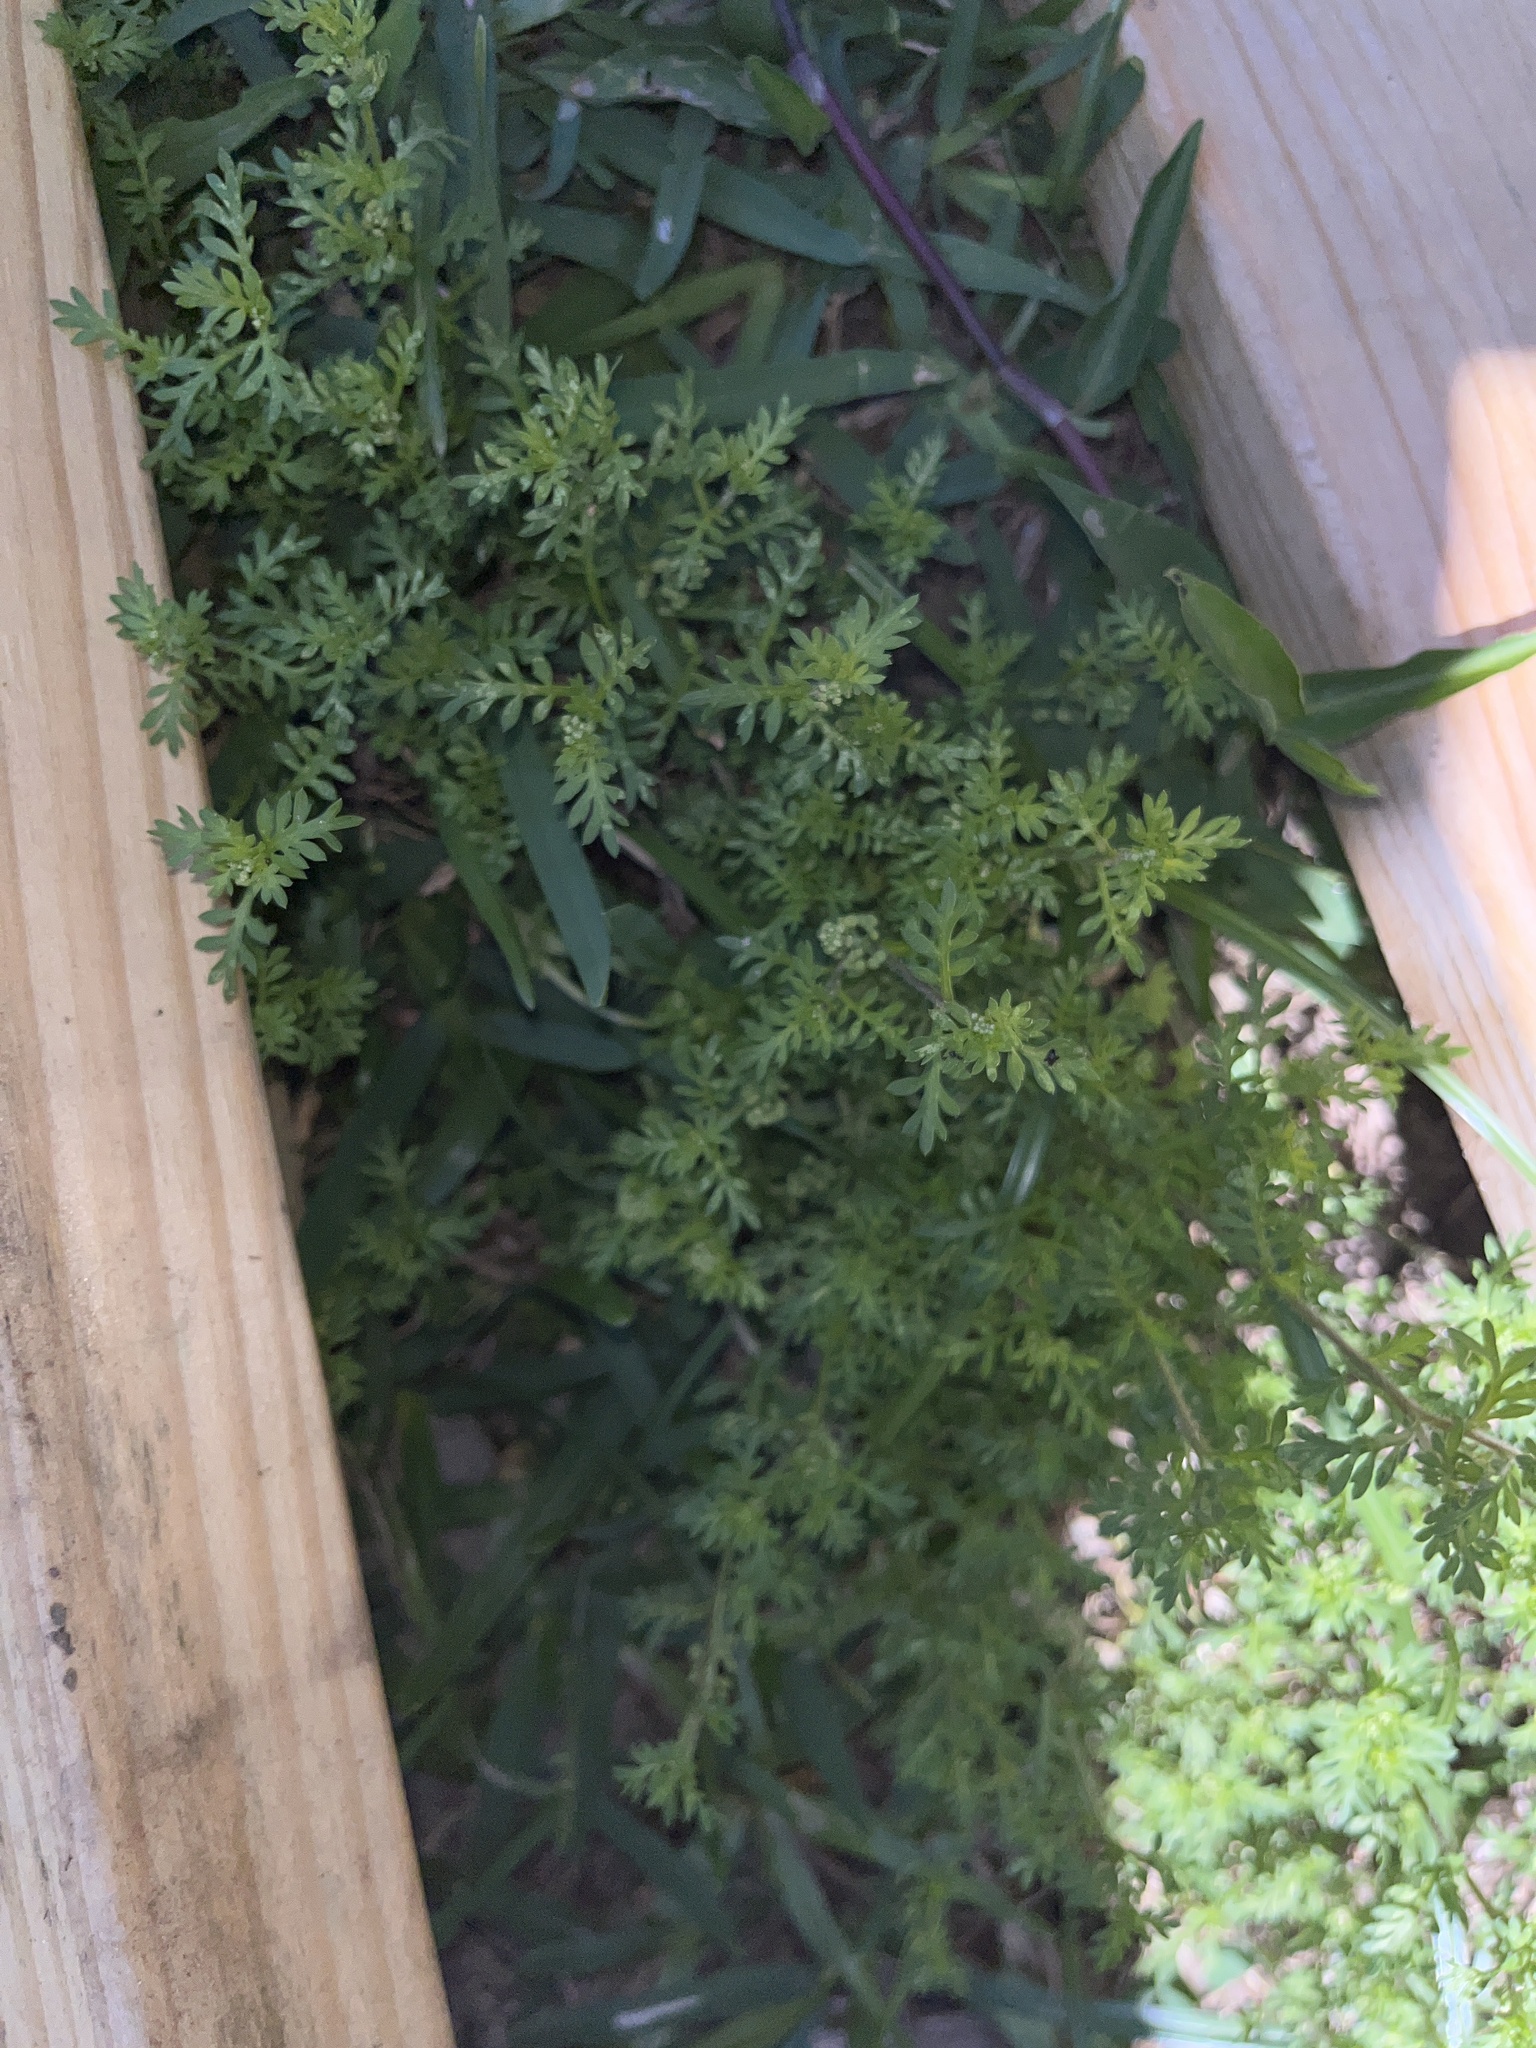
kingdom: Plantae
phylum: Tracheophyta
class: Magnoliopsida
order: Brassicales
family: Brassicaceae
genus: Lepidium
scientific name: Lepidium didymum
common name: Lesser swinecress
